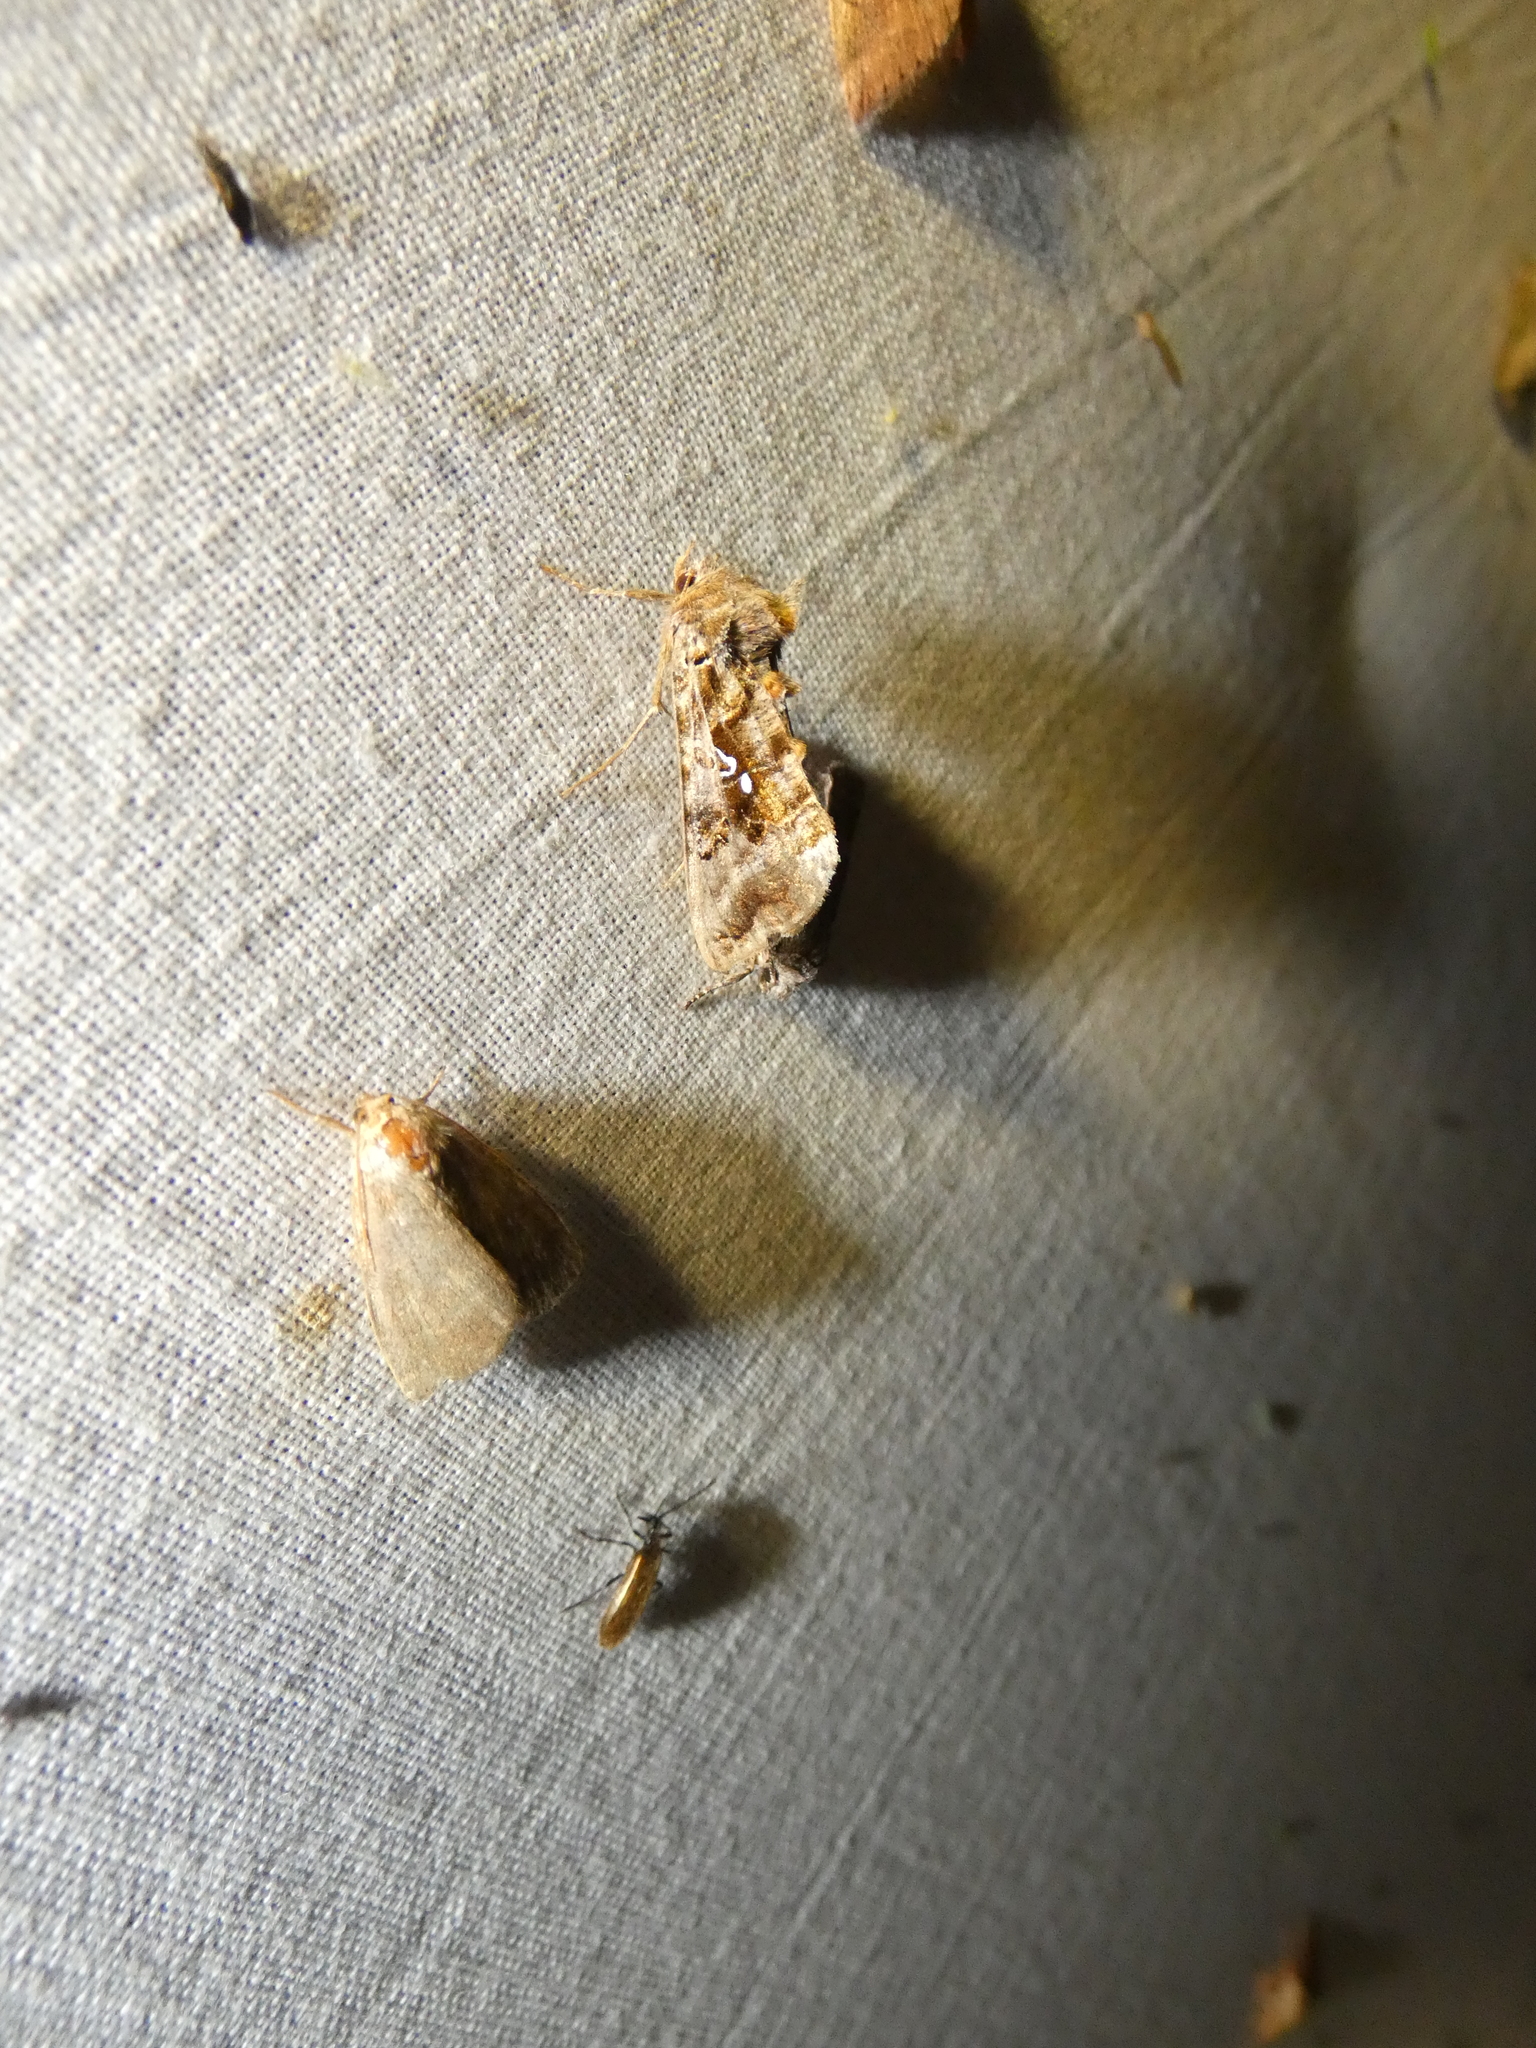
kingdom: Animalia
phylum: Arthropoda
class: Insecta
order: Lepidoptera
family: Noctuidae
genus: Autographa
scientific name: Autographa pulchrina
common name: Beautiful golden y
